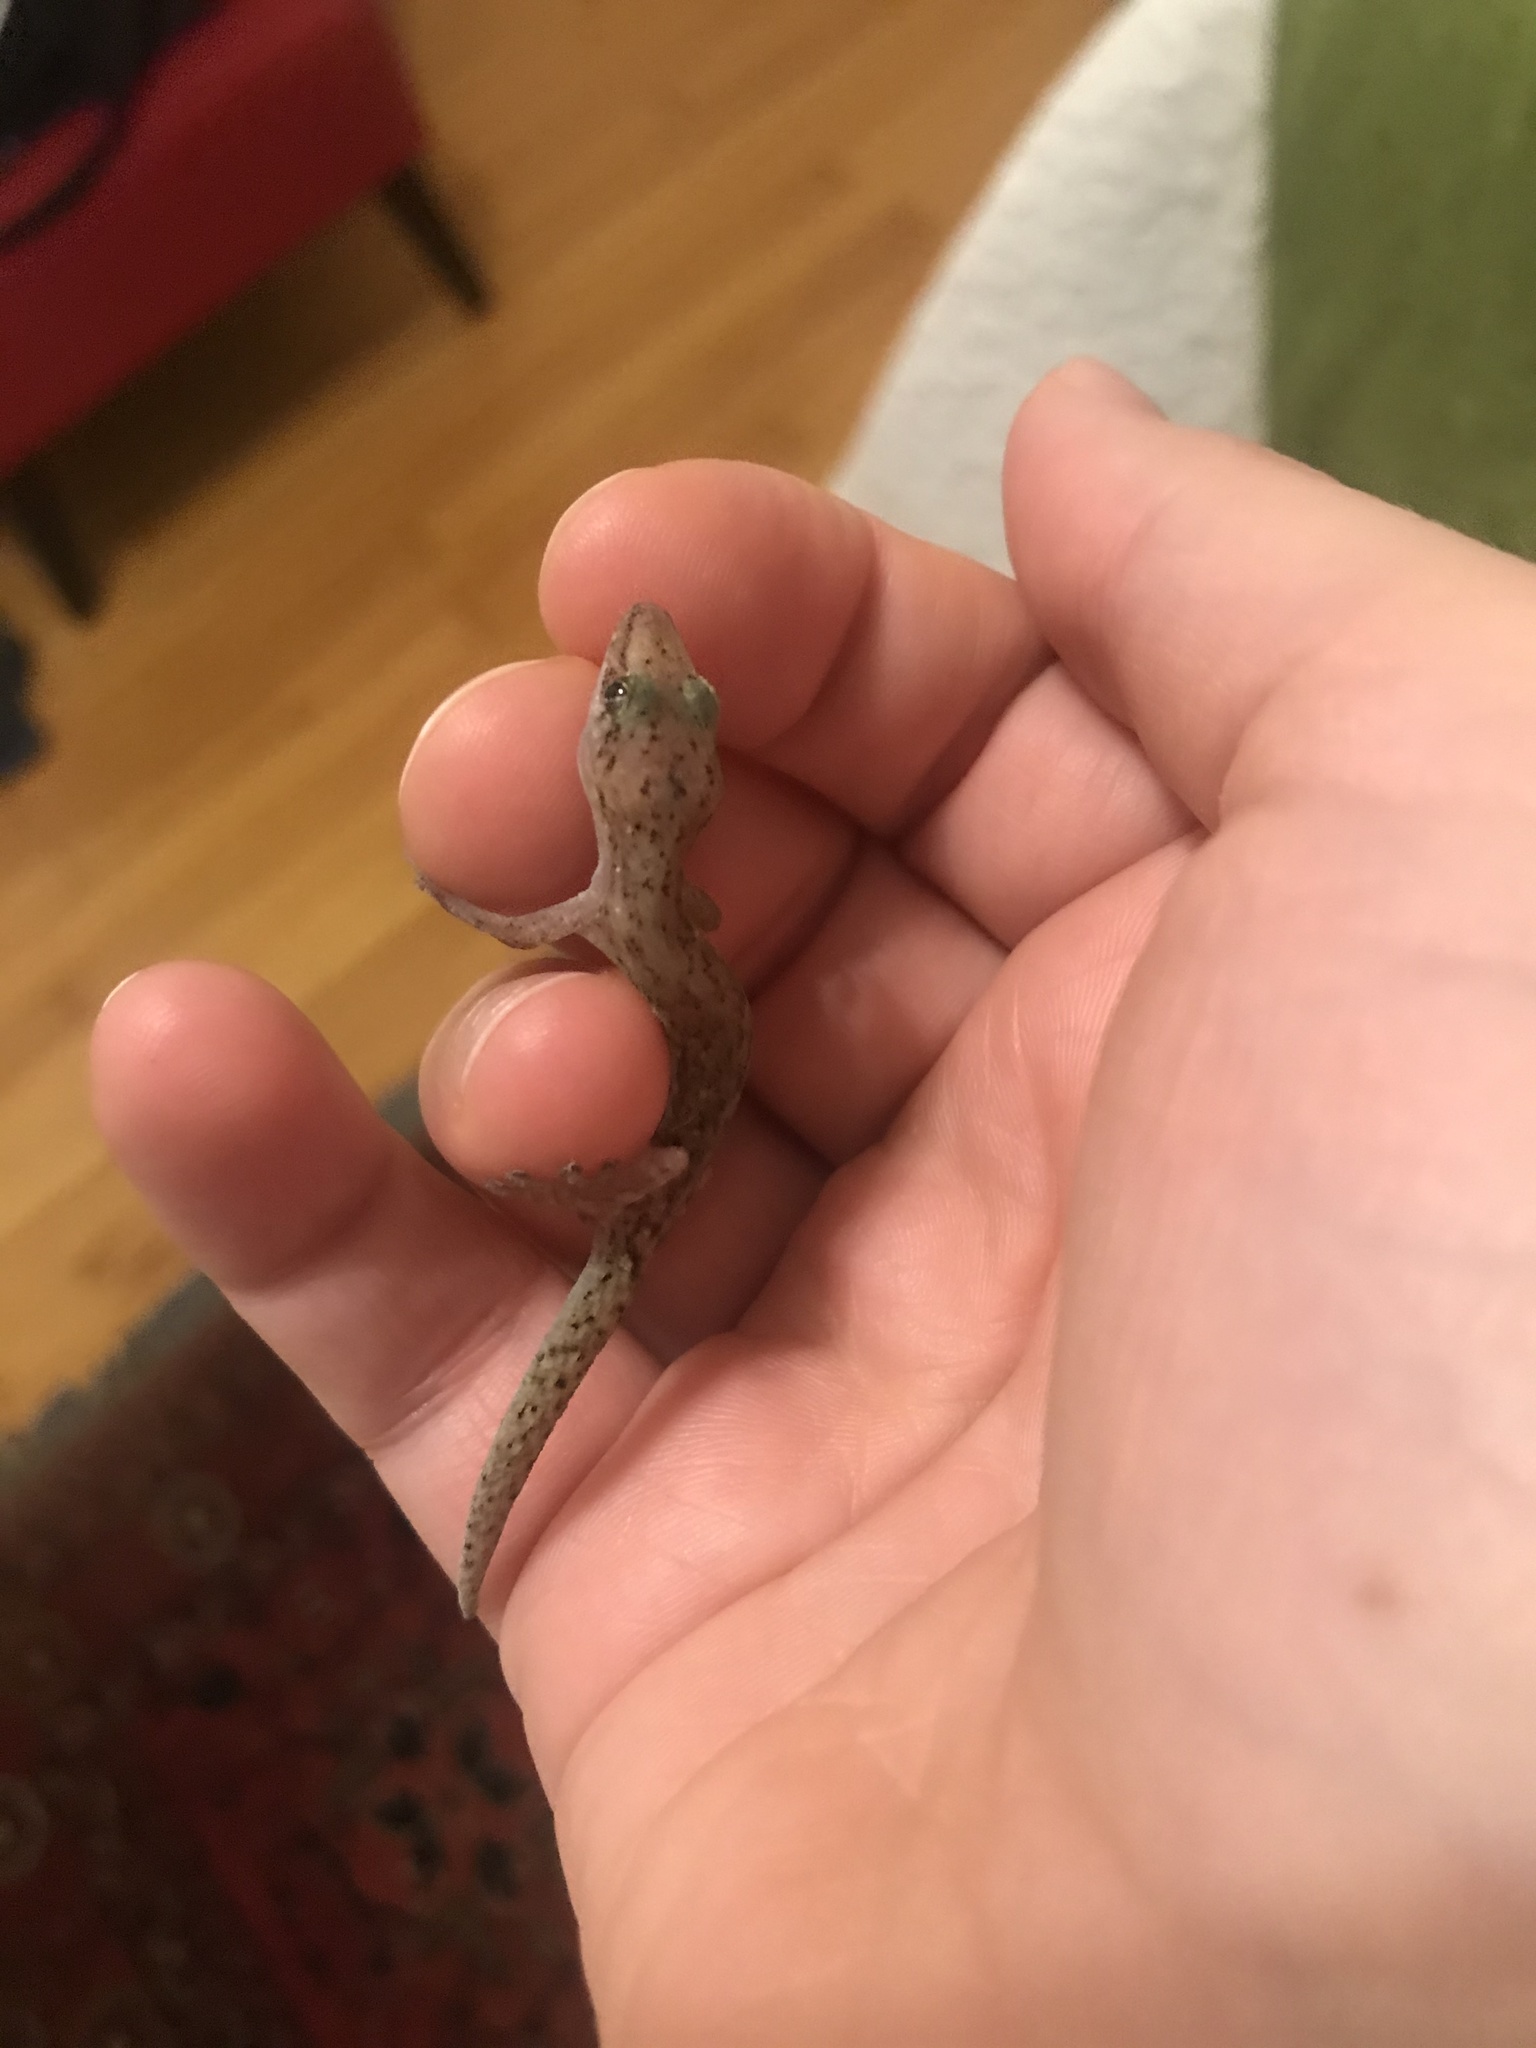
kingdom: Animalia
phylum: Chordata
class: Squamata
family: Gekkonidae
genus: Afrogecko
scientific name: Afrogecko porphyreus
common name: Marbled leaf-toed gecko
